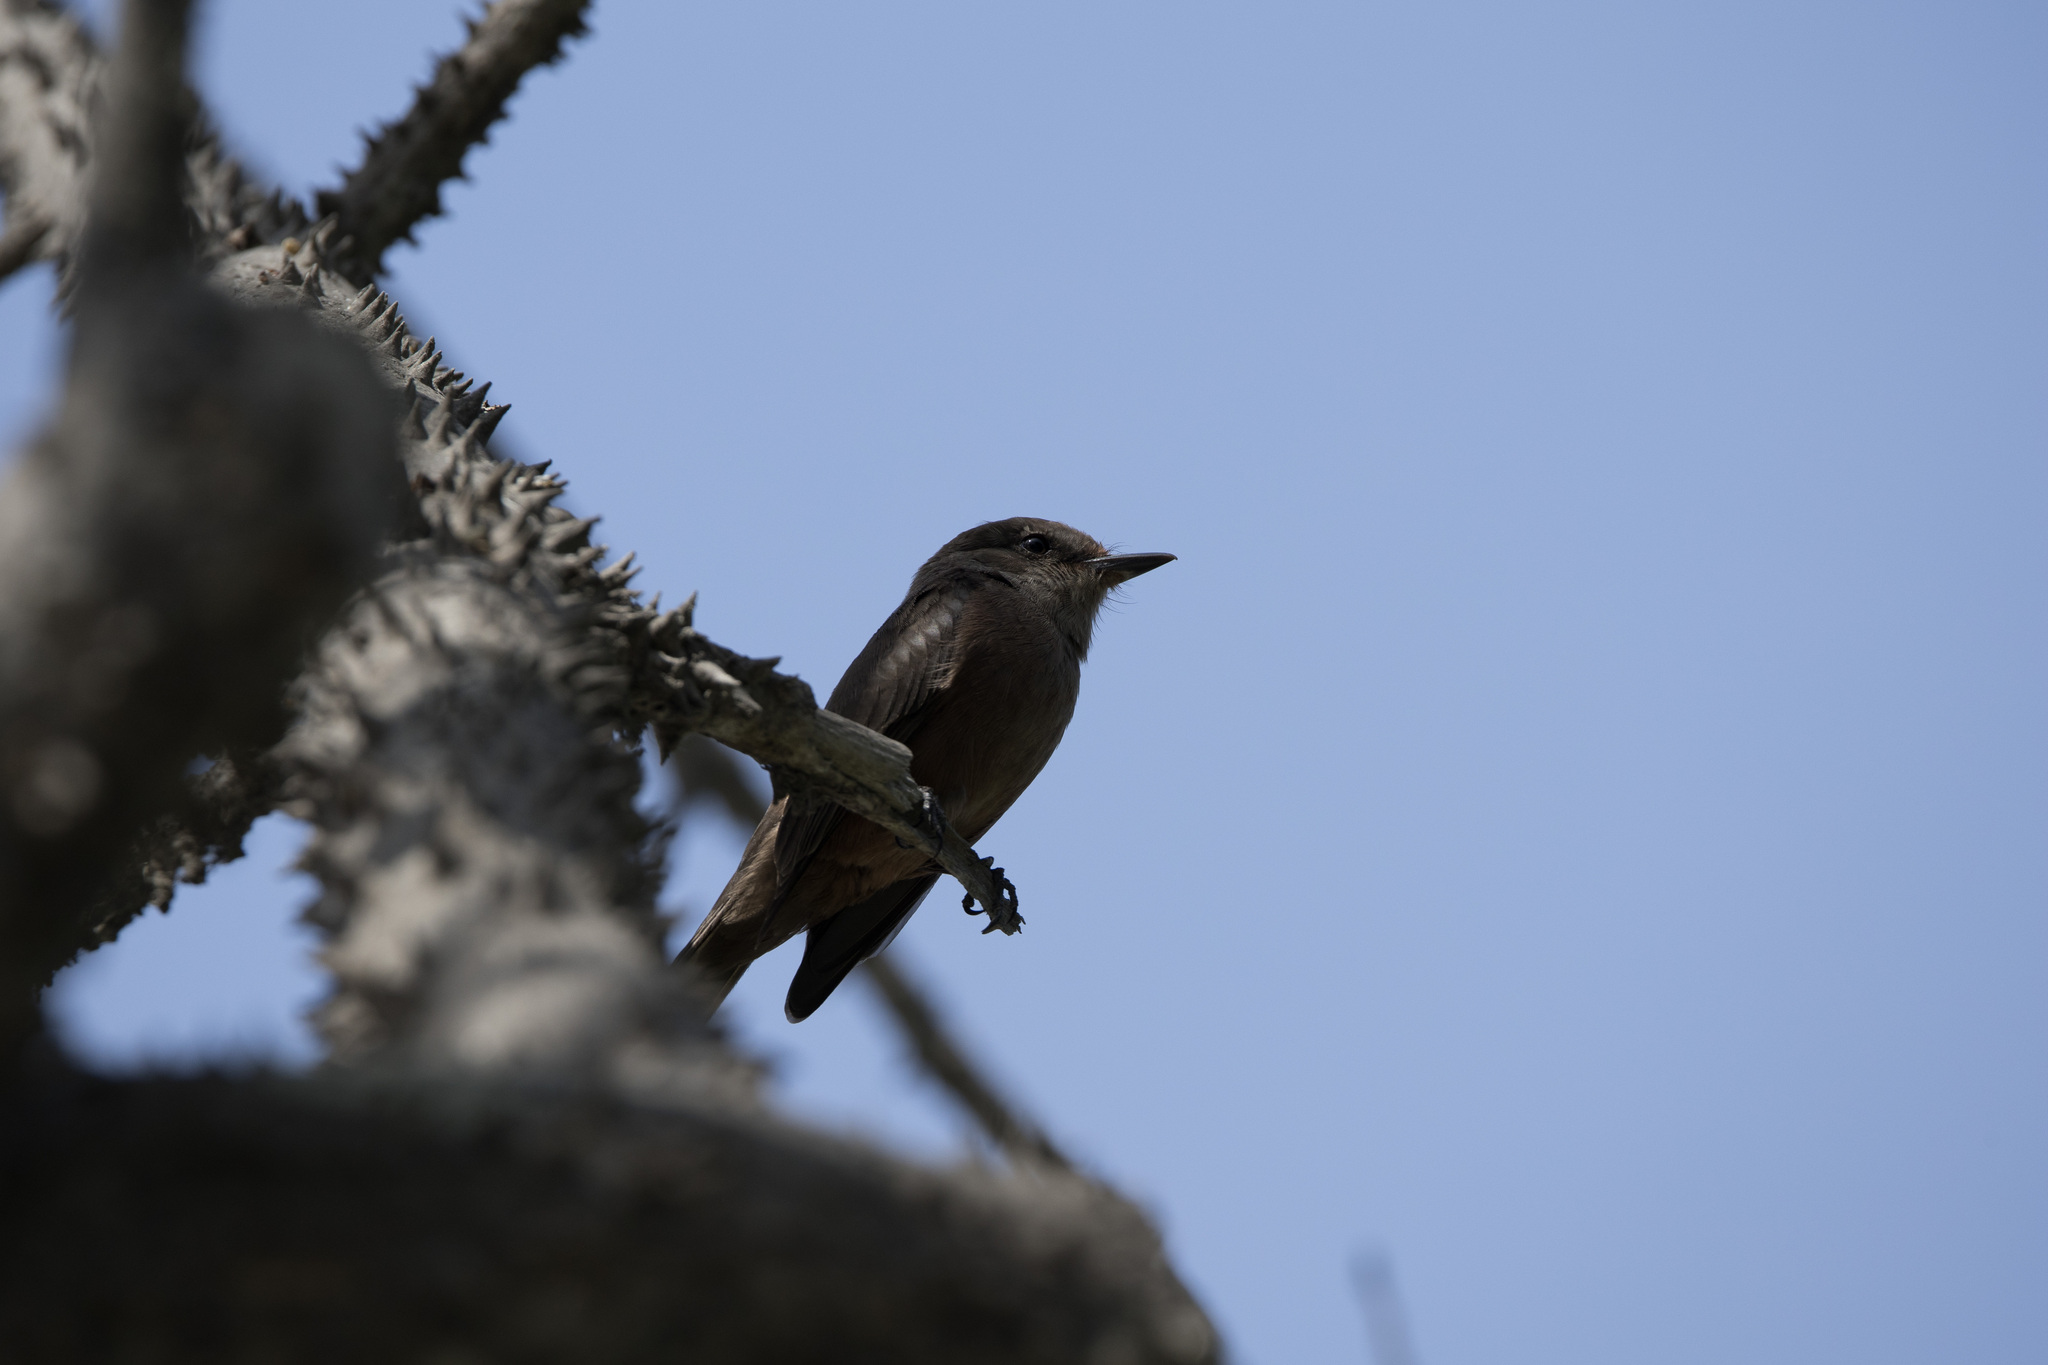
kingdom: Animalia
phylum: Chordata
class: Aves
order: Passeriformes
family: Tyrannidae
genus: Pyrocephalus
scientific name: Pyrocephalus rubinus
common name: Vermilion flycatcher
